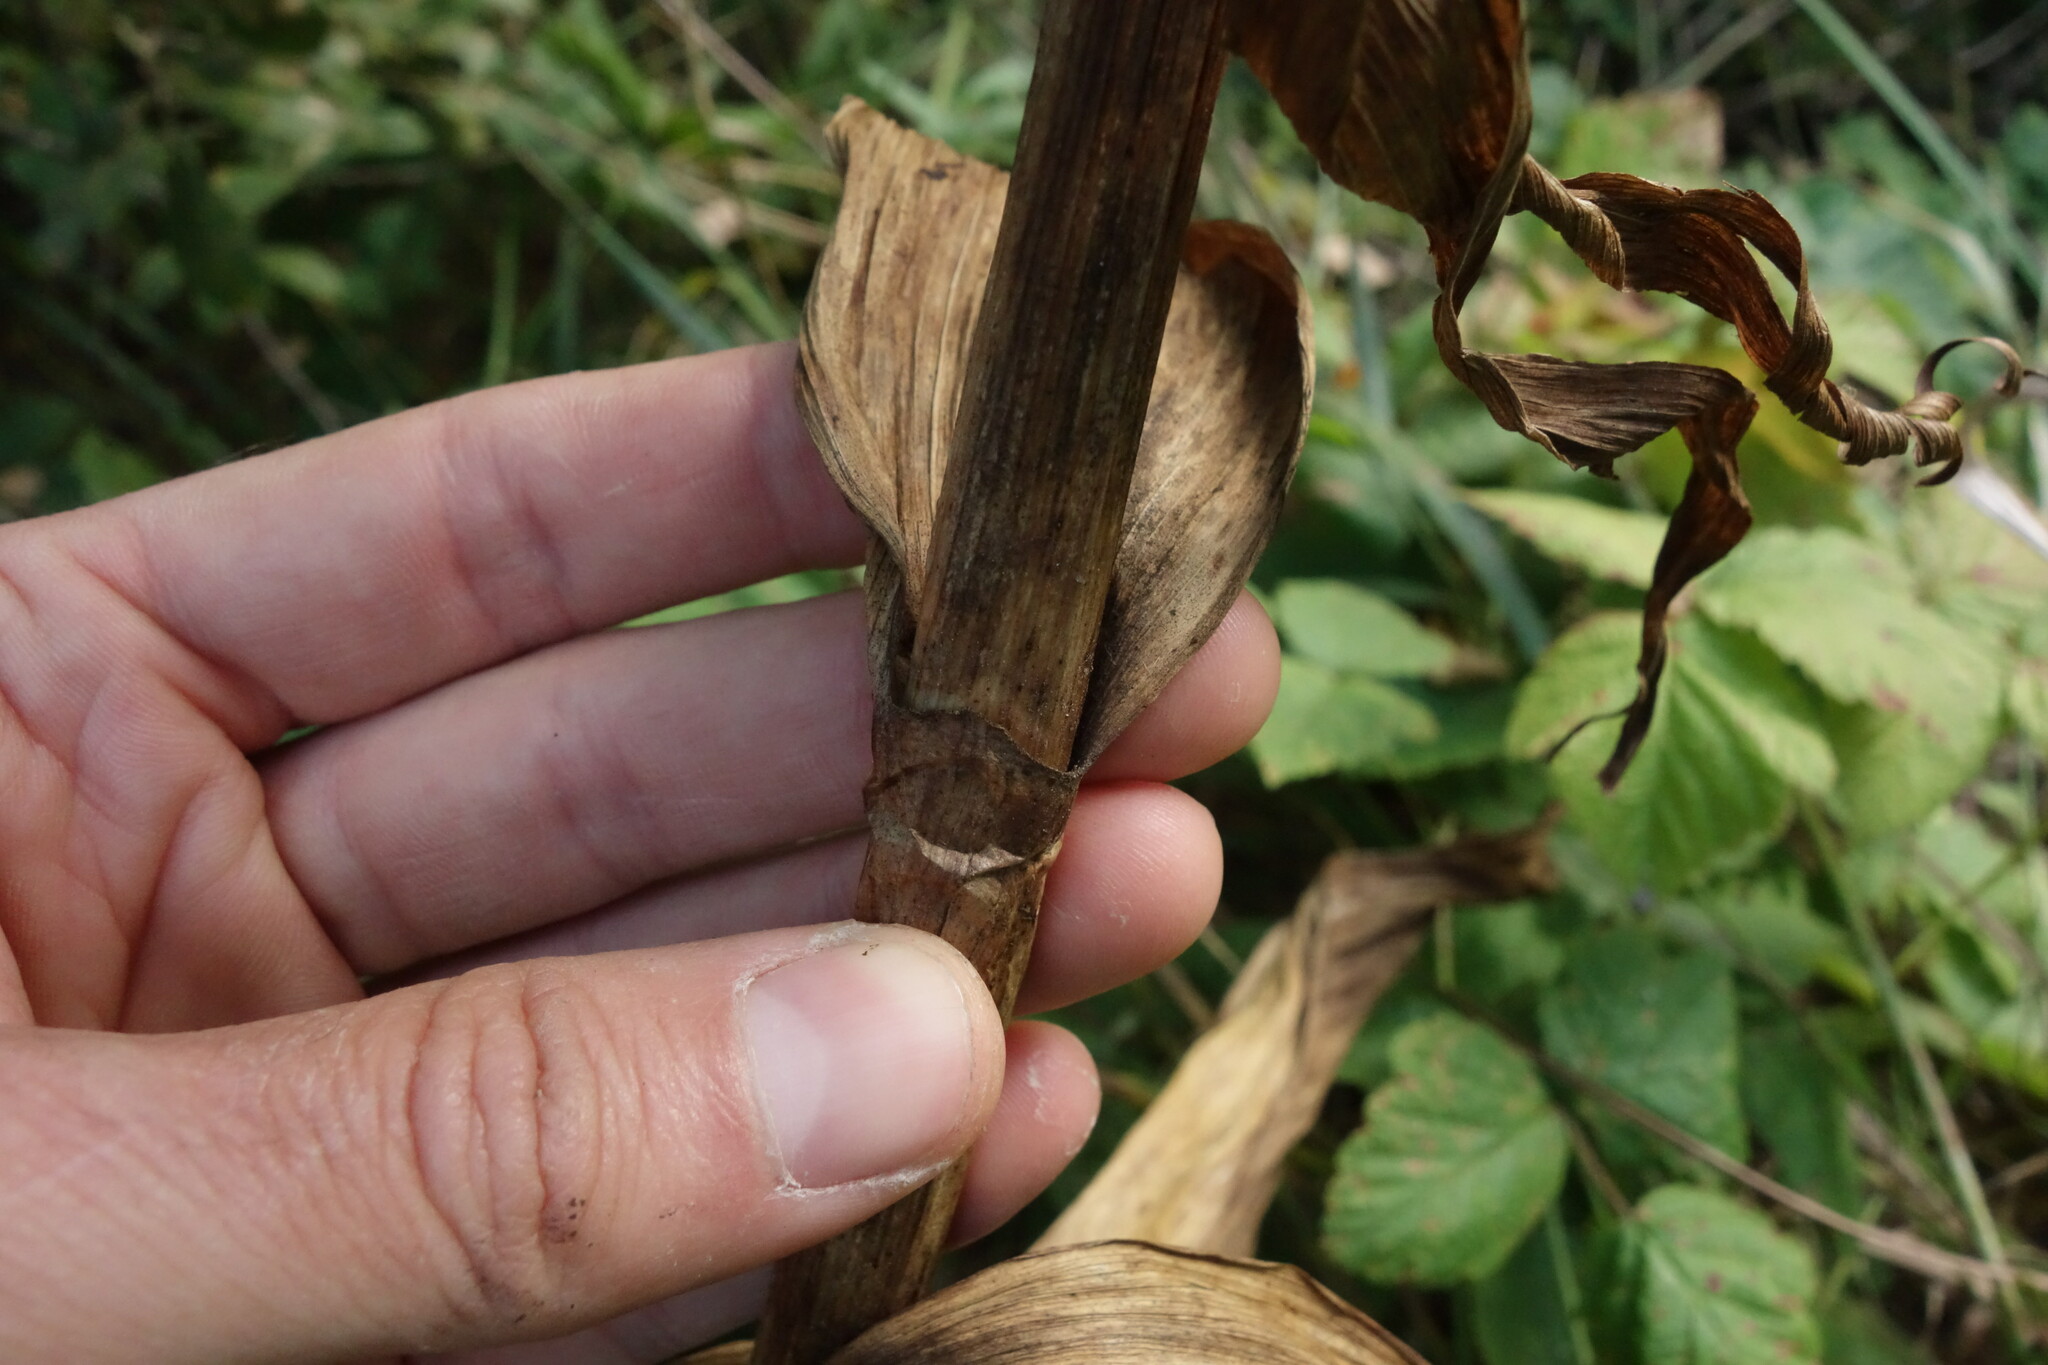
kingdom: Plantae
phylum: Tracheophyta
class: Liliopsida
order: Liliales
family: Melanthiaceae
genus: Veratrum
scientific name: Veratrum lobelianum
